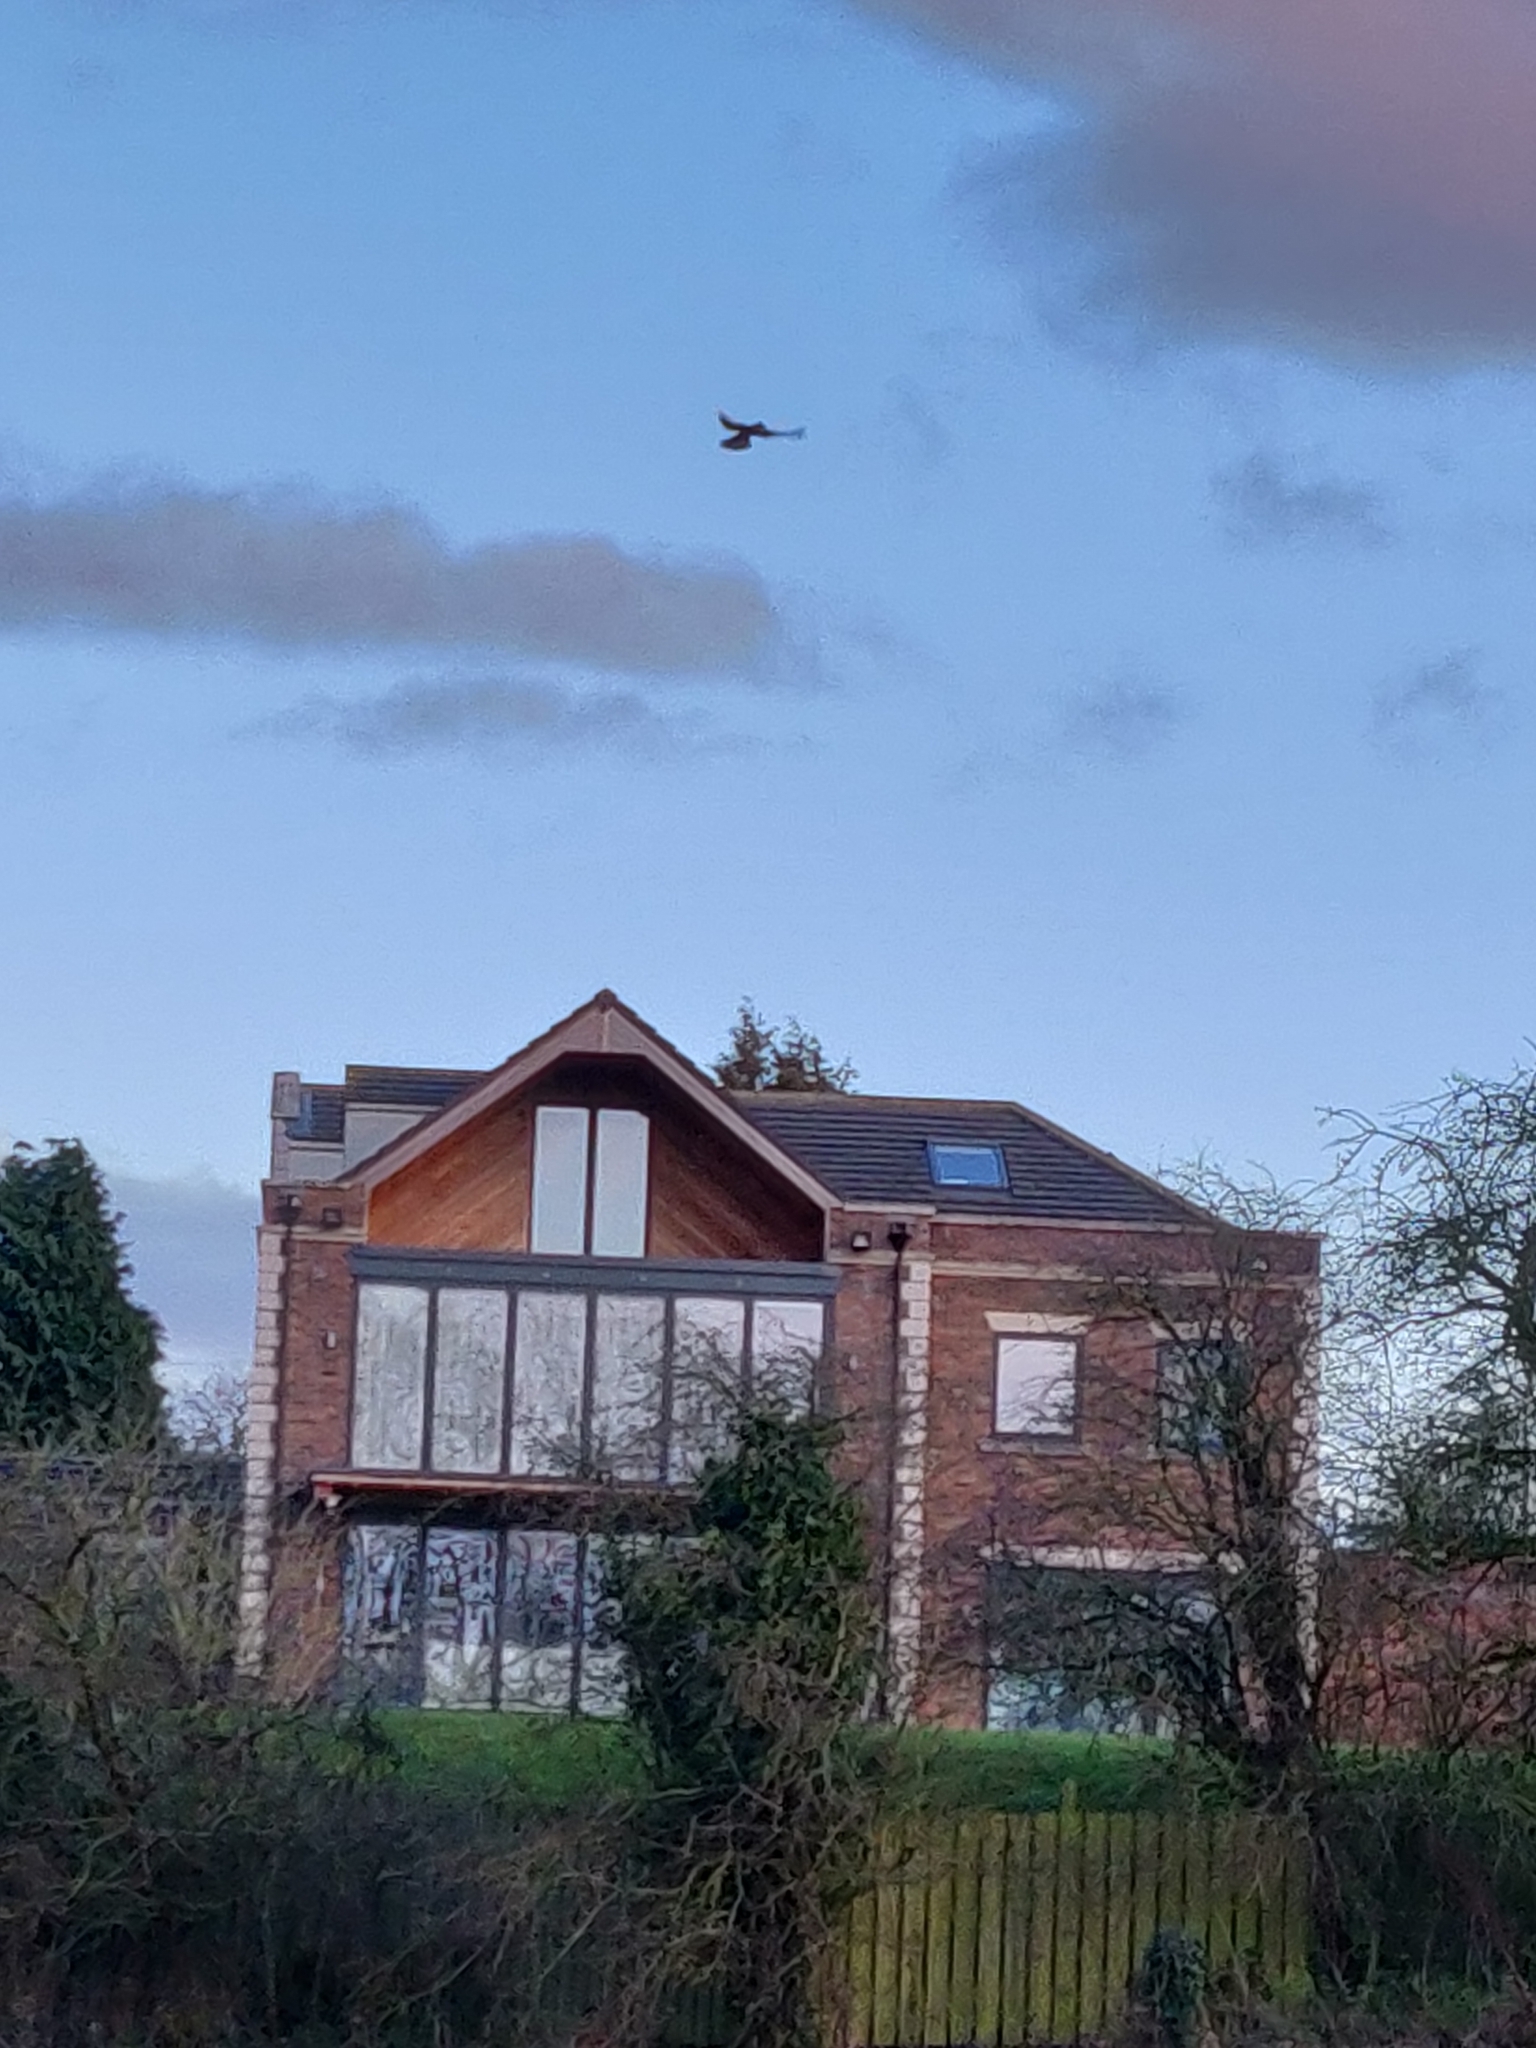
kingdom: Animalia
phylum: Chordata
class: Aves
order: Falconiformes
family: Falconidae
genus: Falco
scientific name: Falco tinnunculus
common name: Common kestrel
